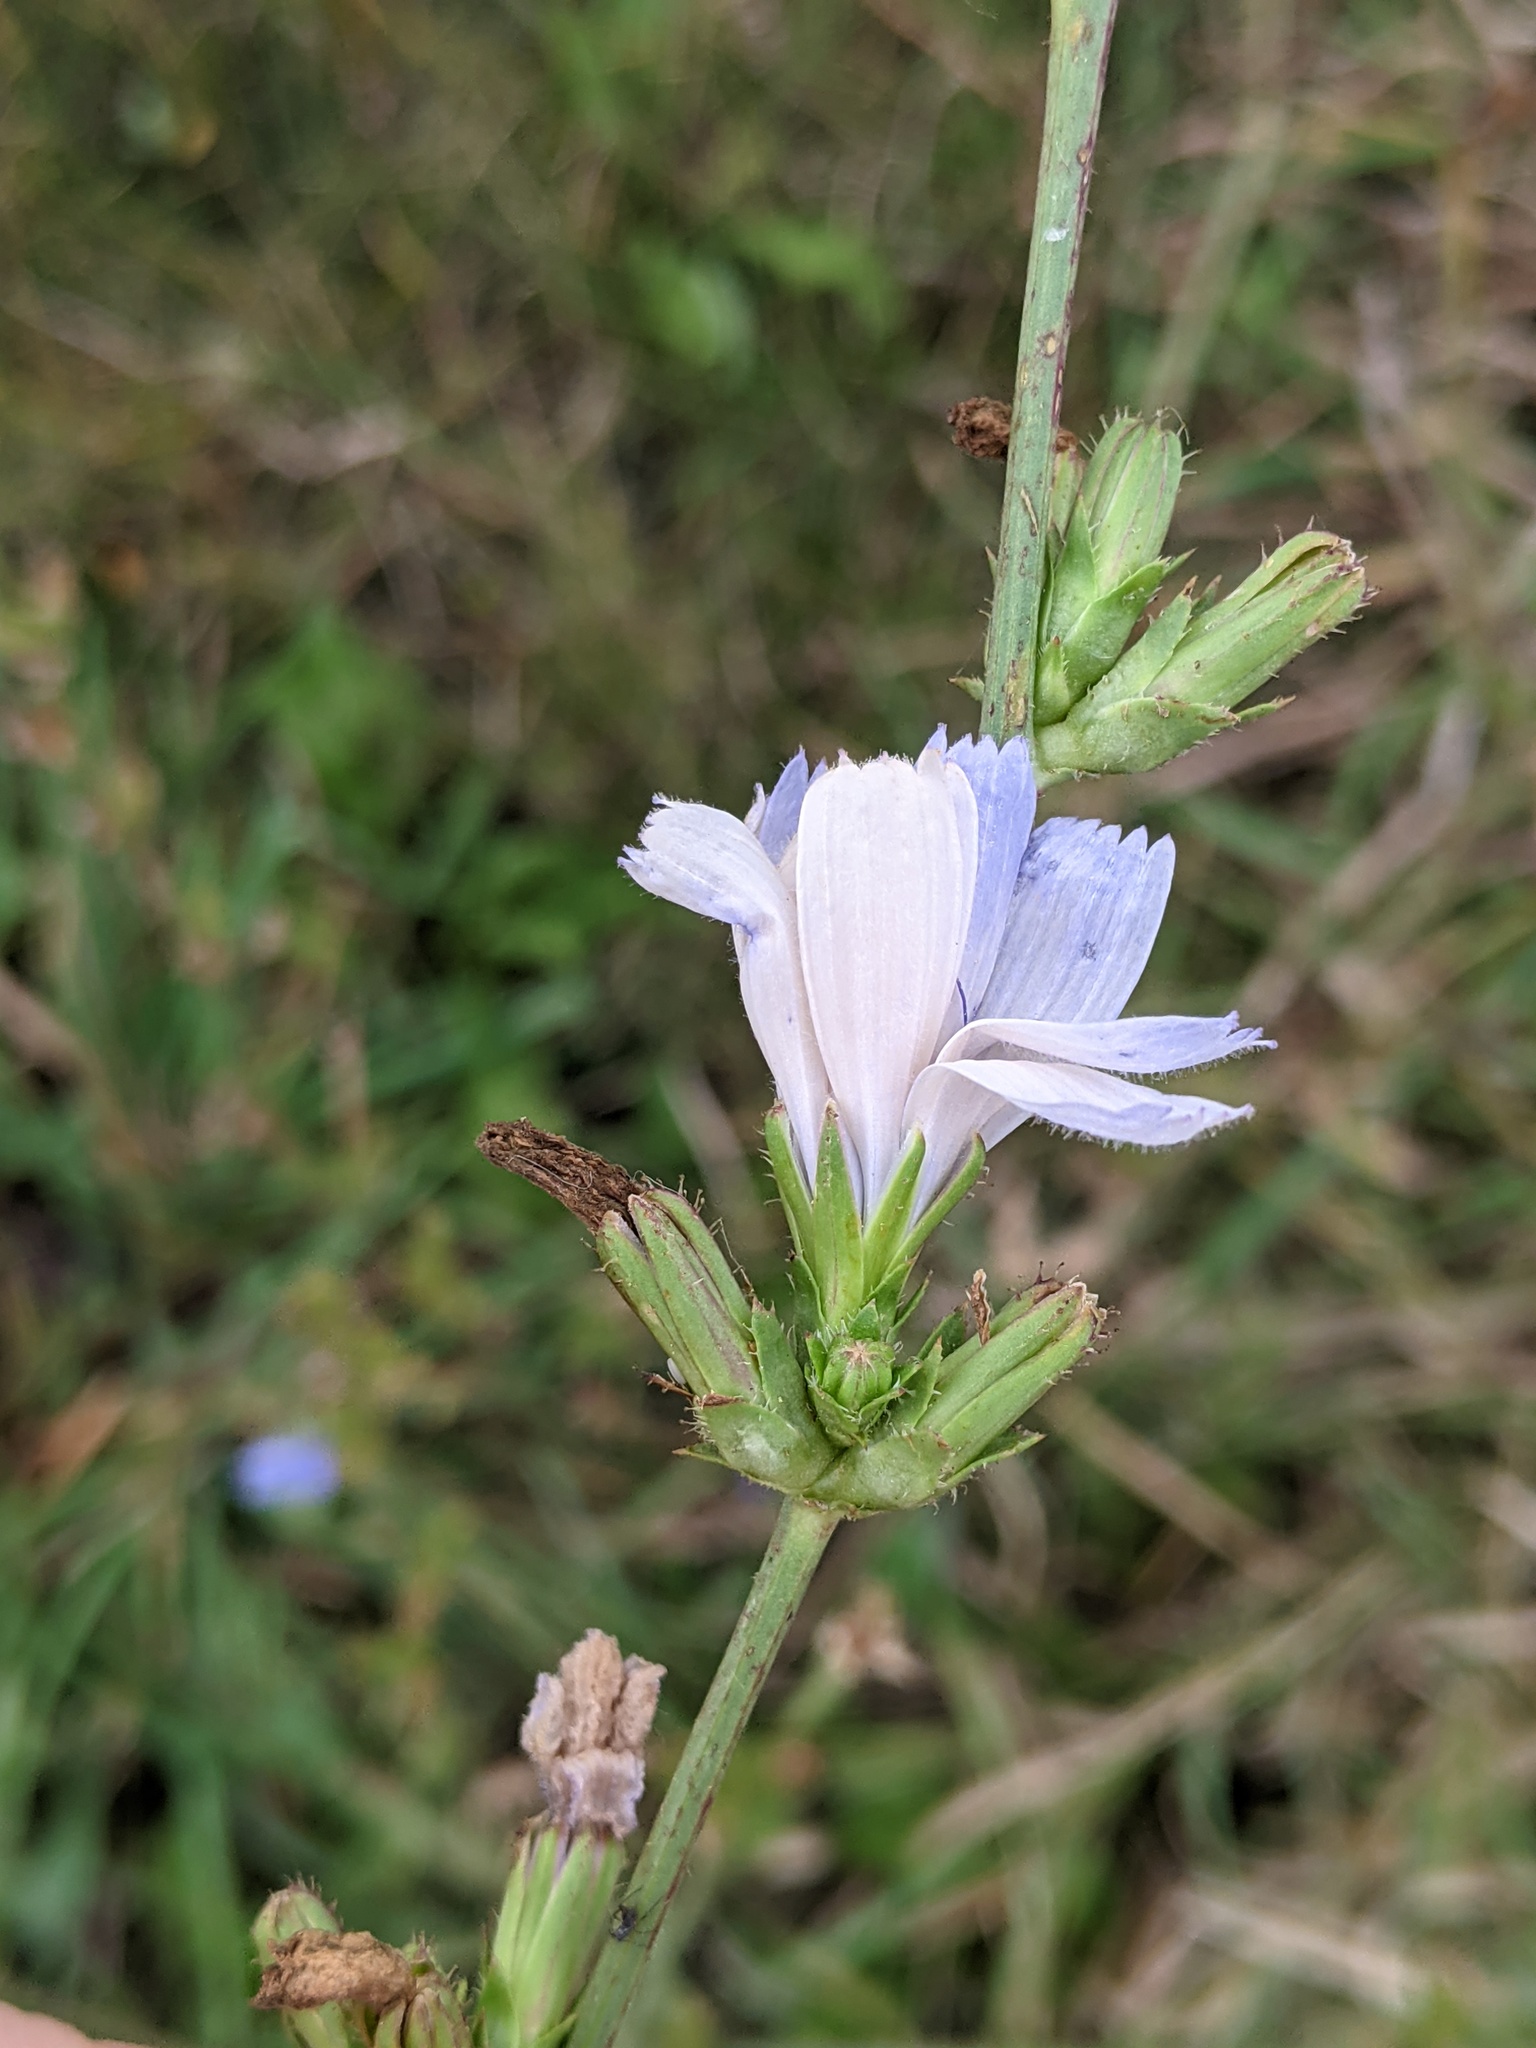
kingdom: Plantae
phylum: Tracheophyta
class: Magnoliopsida
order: Asterales
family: Asteraceae
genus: Cichorium
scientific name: Cichorium intybus
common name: Chicory
